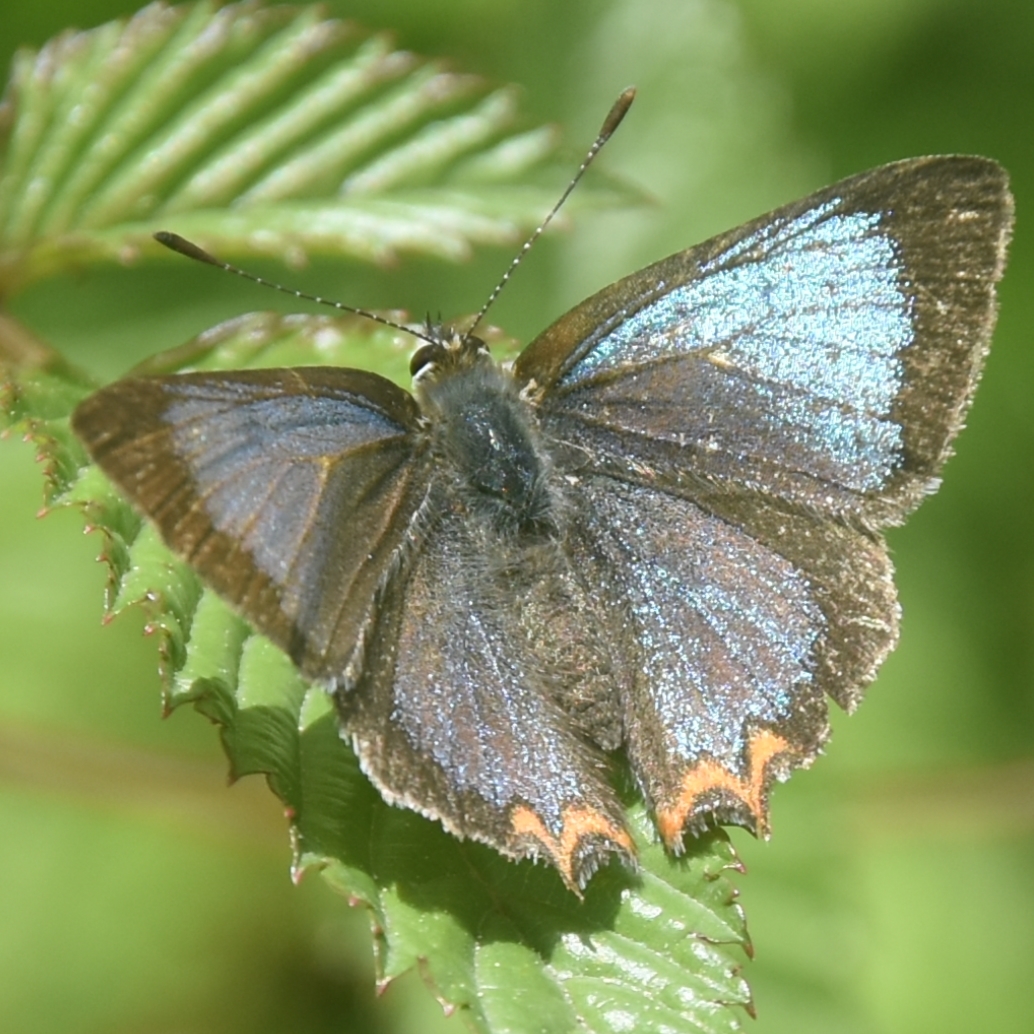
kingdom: Animalia
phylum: Arthropoda
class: Insecta
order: Lepidoptera
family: Lycaenidae
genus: Heliophorus
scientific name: Heliophorus
